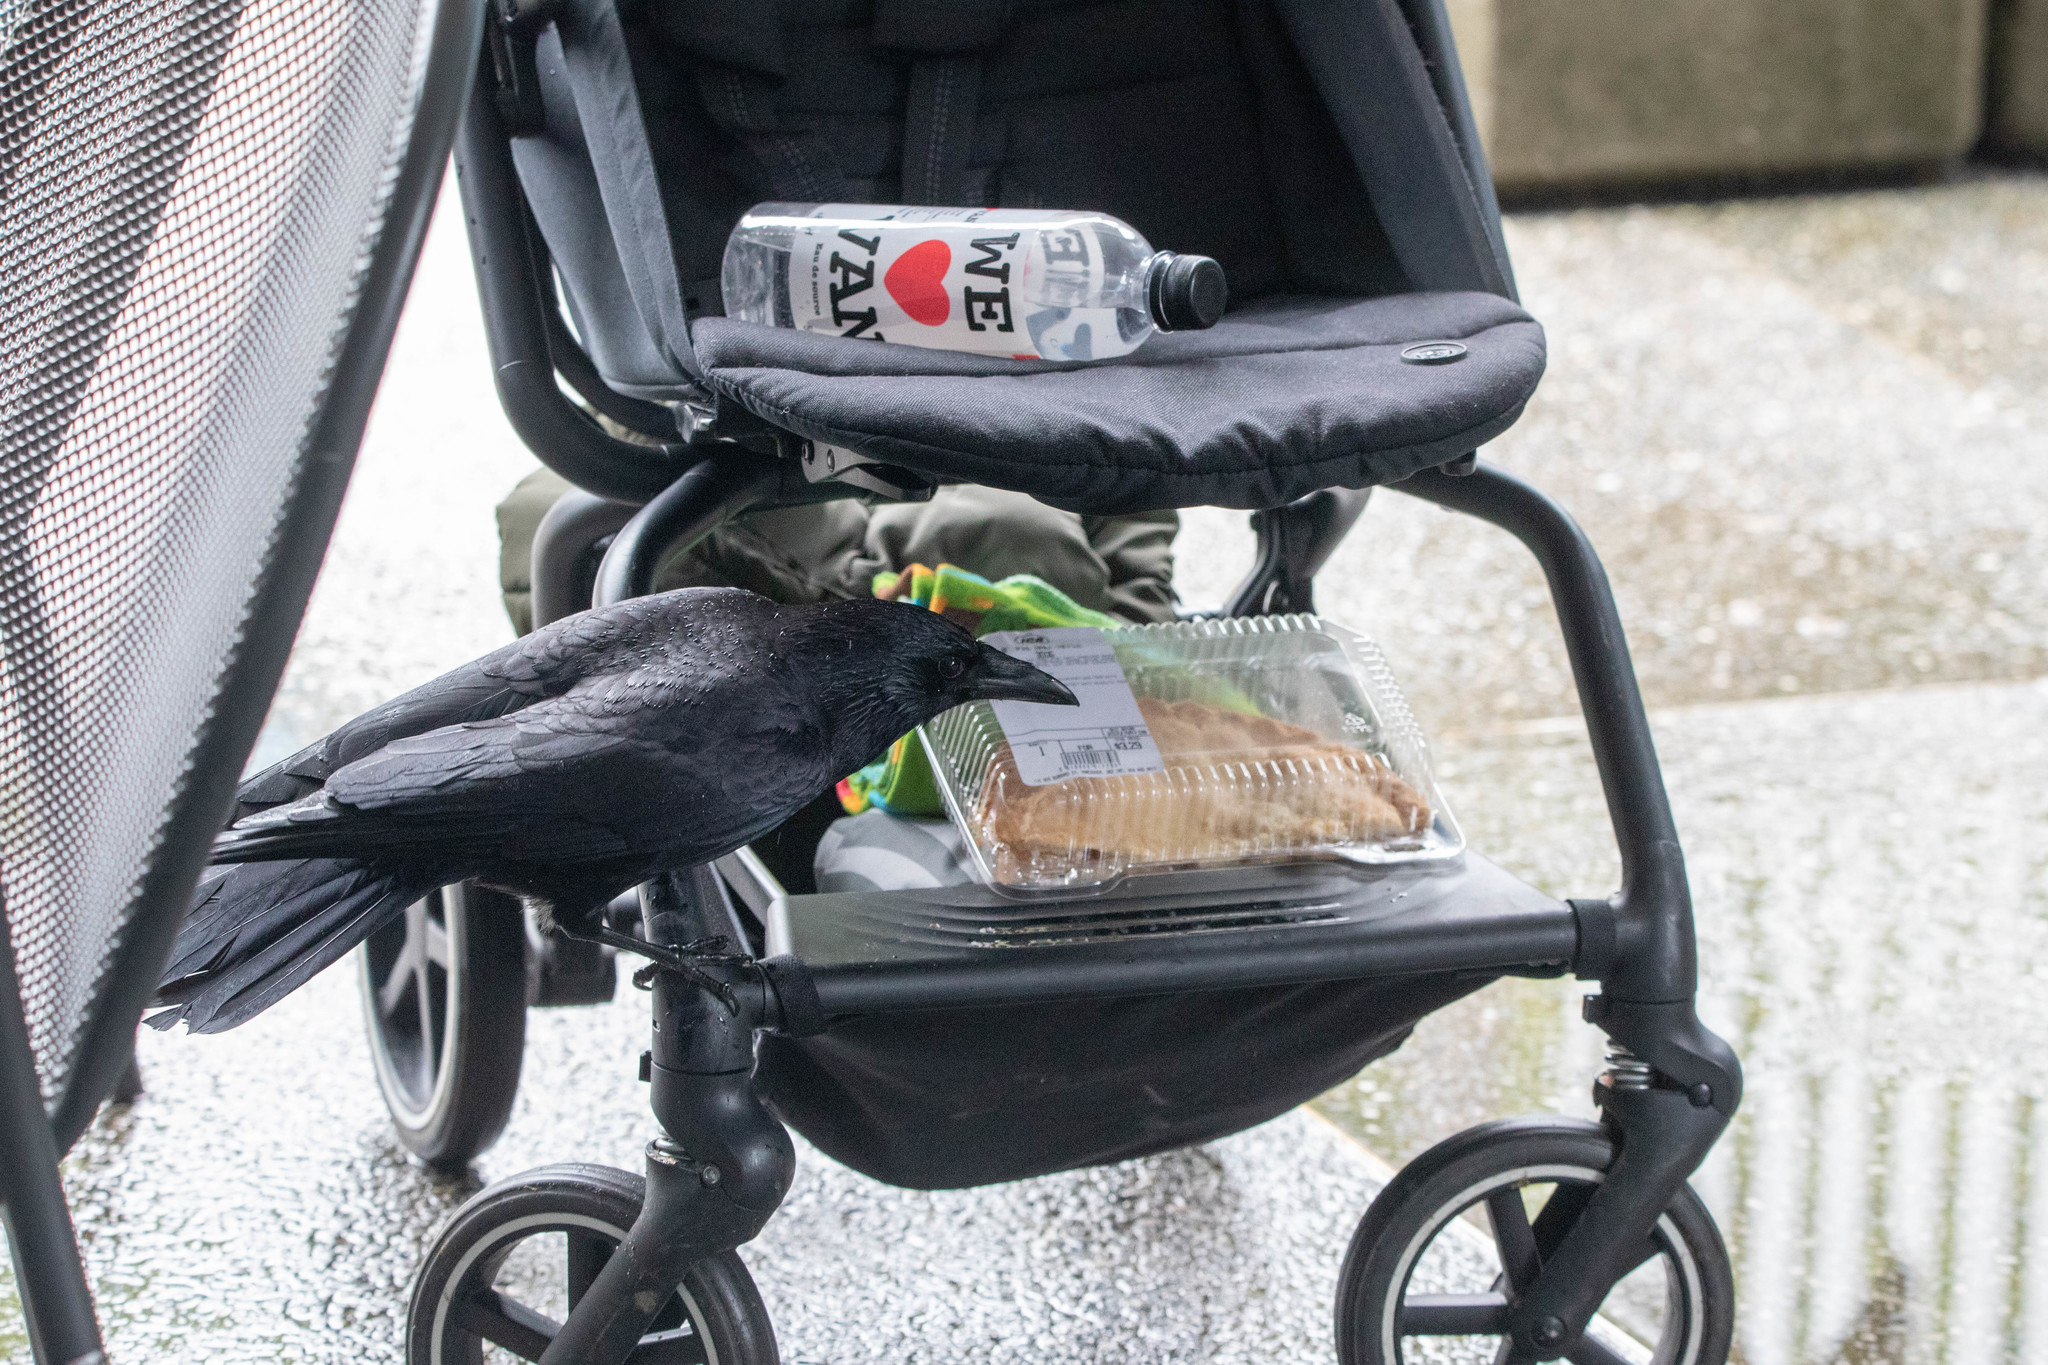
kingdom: Animalia
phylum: Chordata
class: Aves
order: Passeriformes
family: Corvidae
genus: Corvus
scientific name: Corvus brachyrhynchos
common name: American crow
